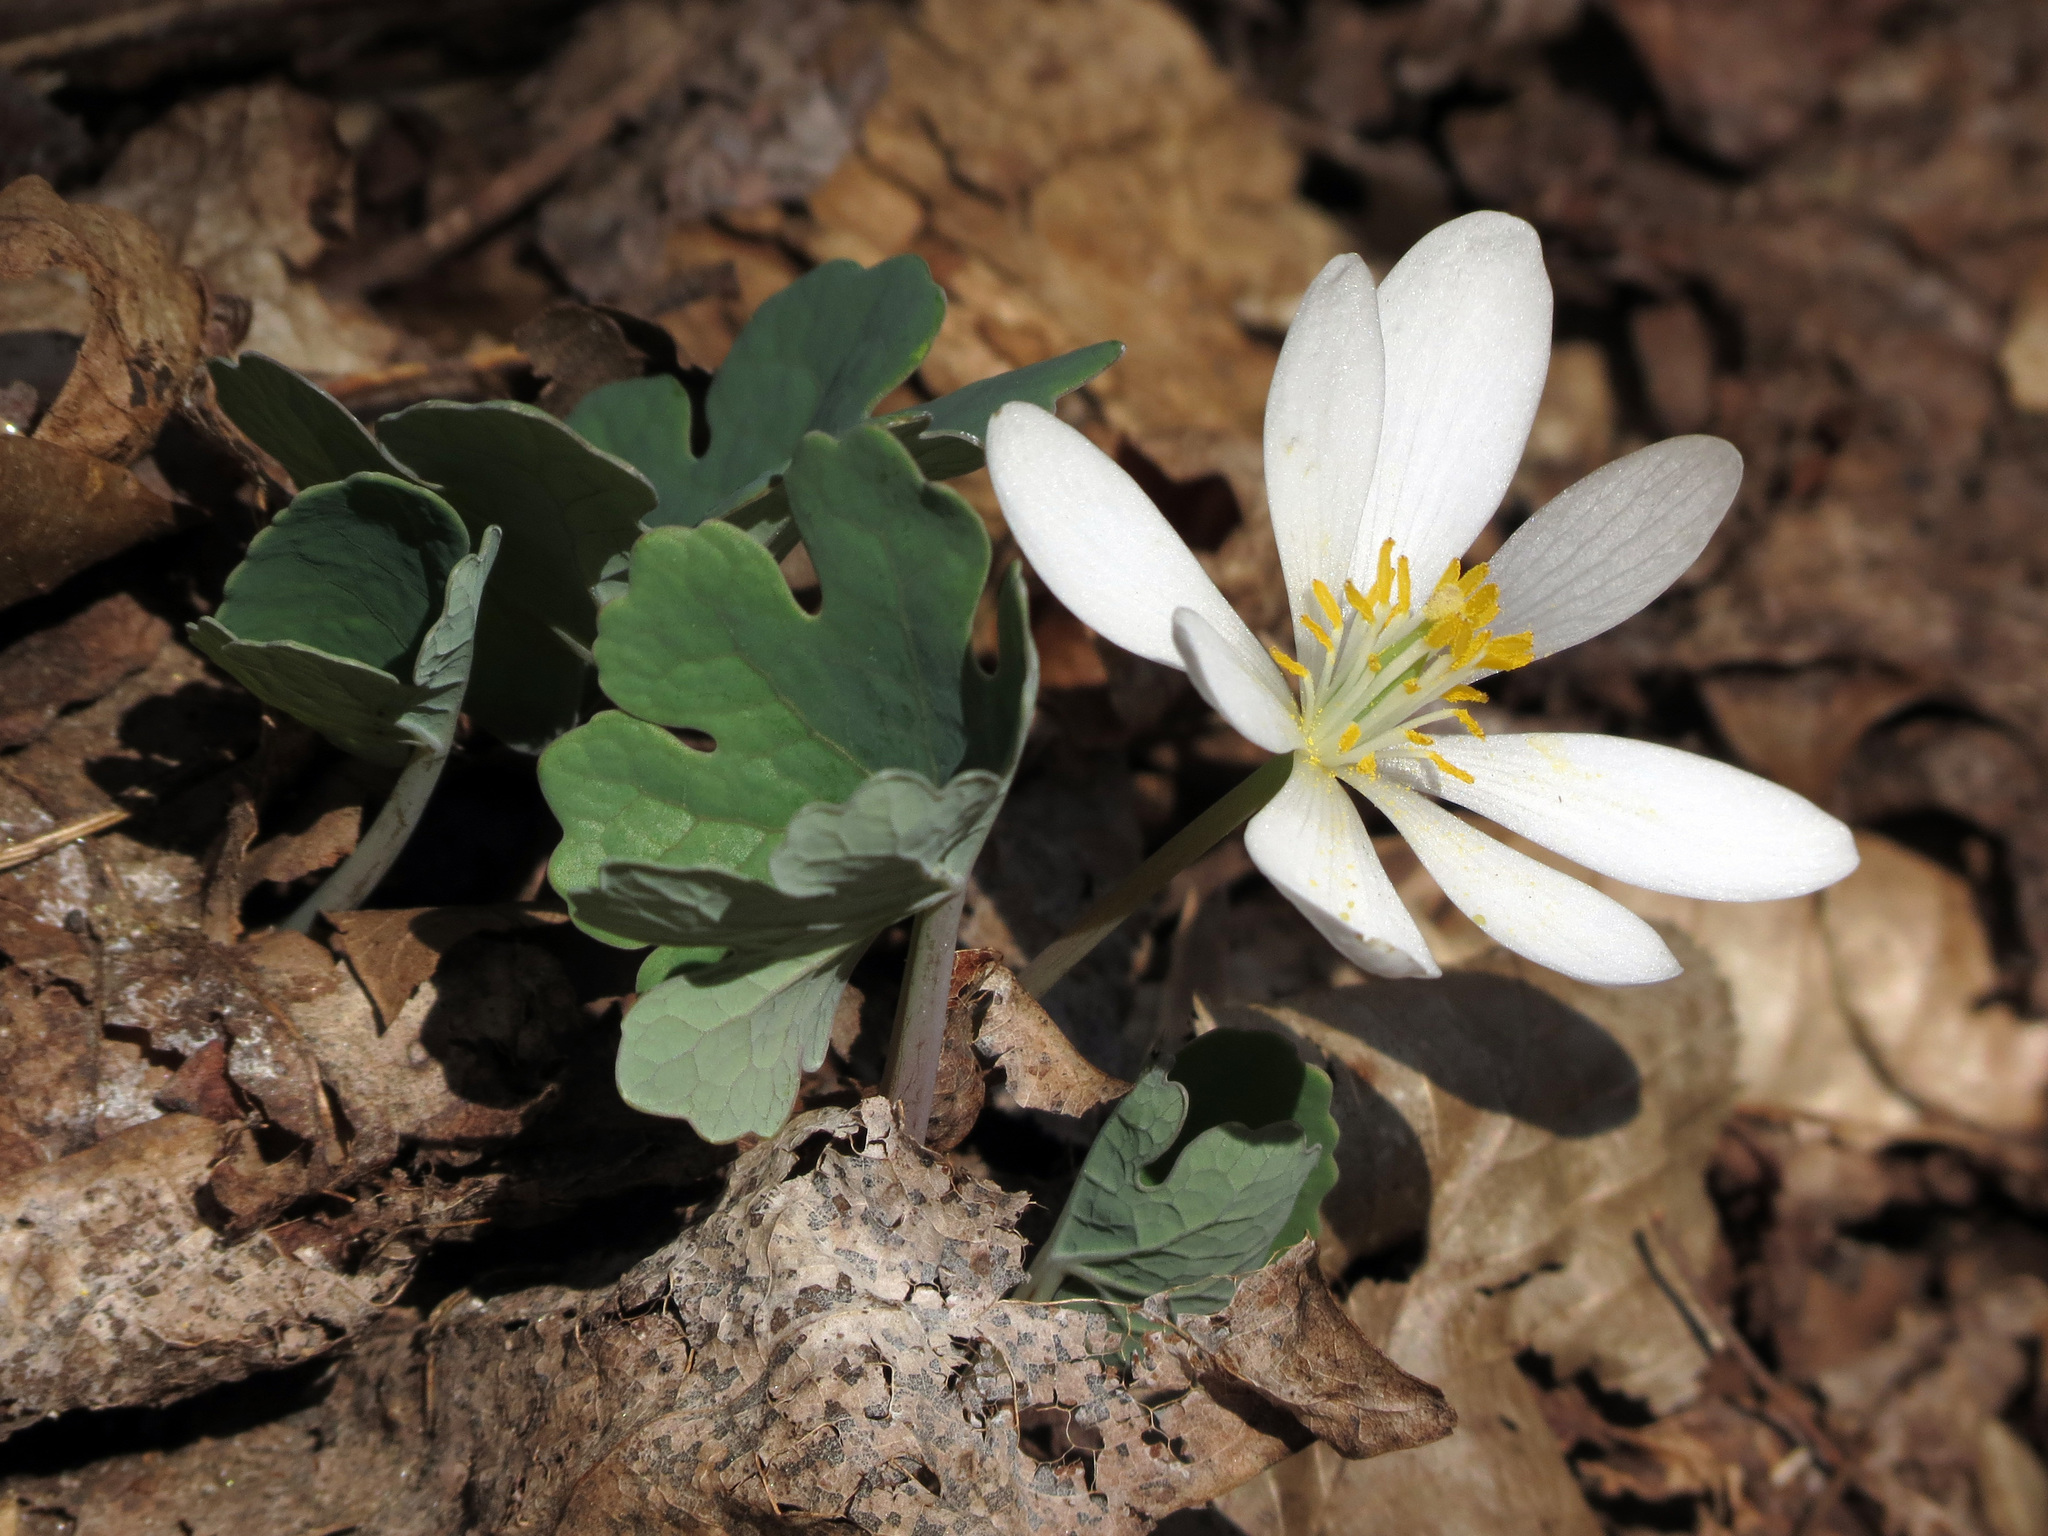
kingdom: Plantae
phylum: Tracheophyta
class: Magnoliopsida
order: Ranunculales
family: Papaveraceae
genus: Sanguinaria
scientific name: Sanguinaria canadensis
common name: Bloodroot
